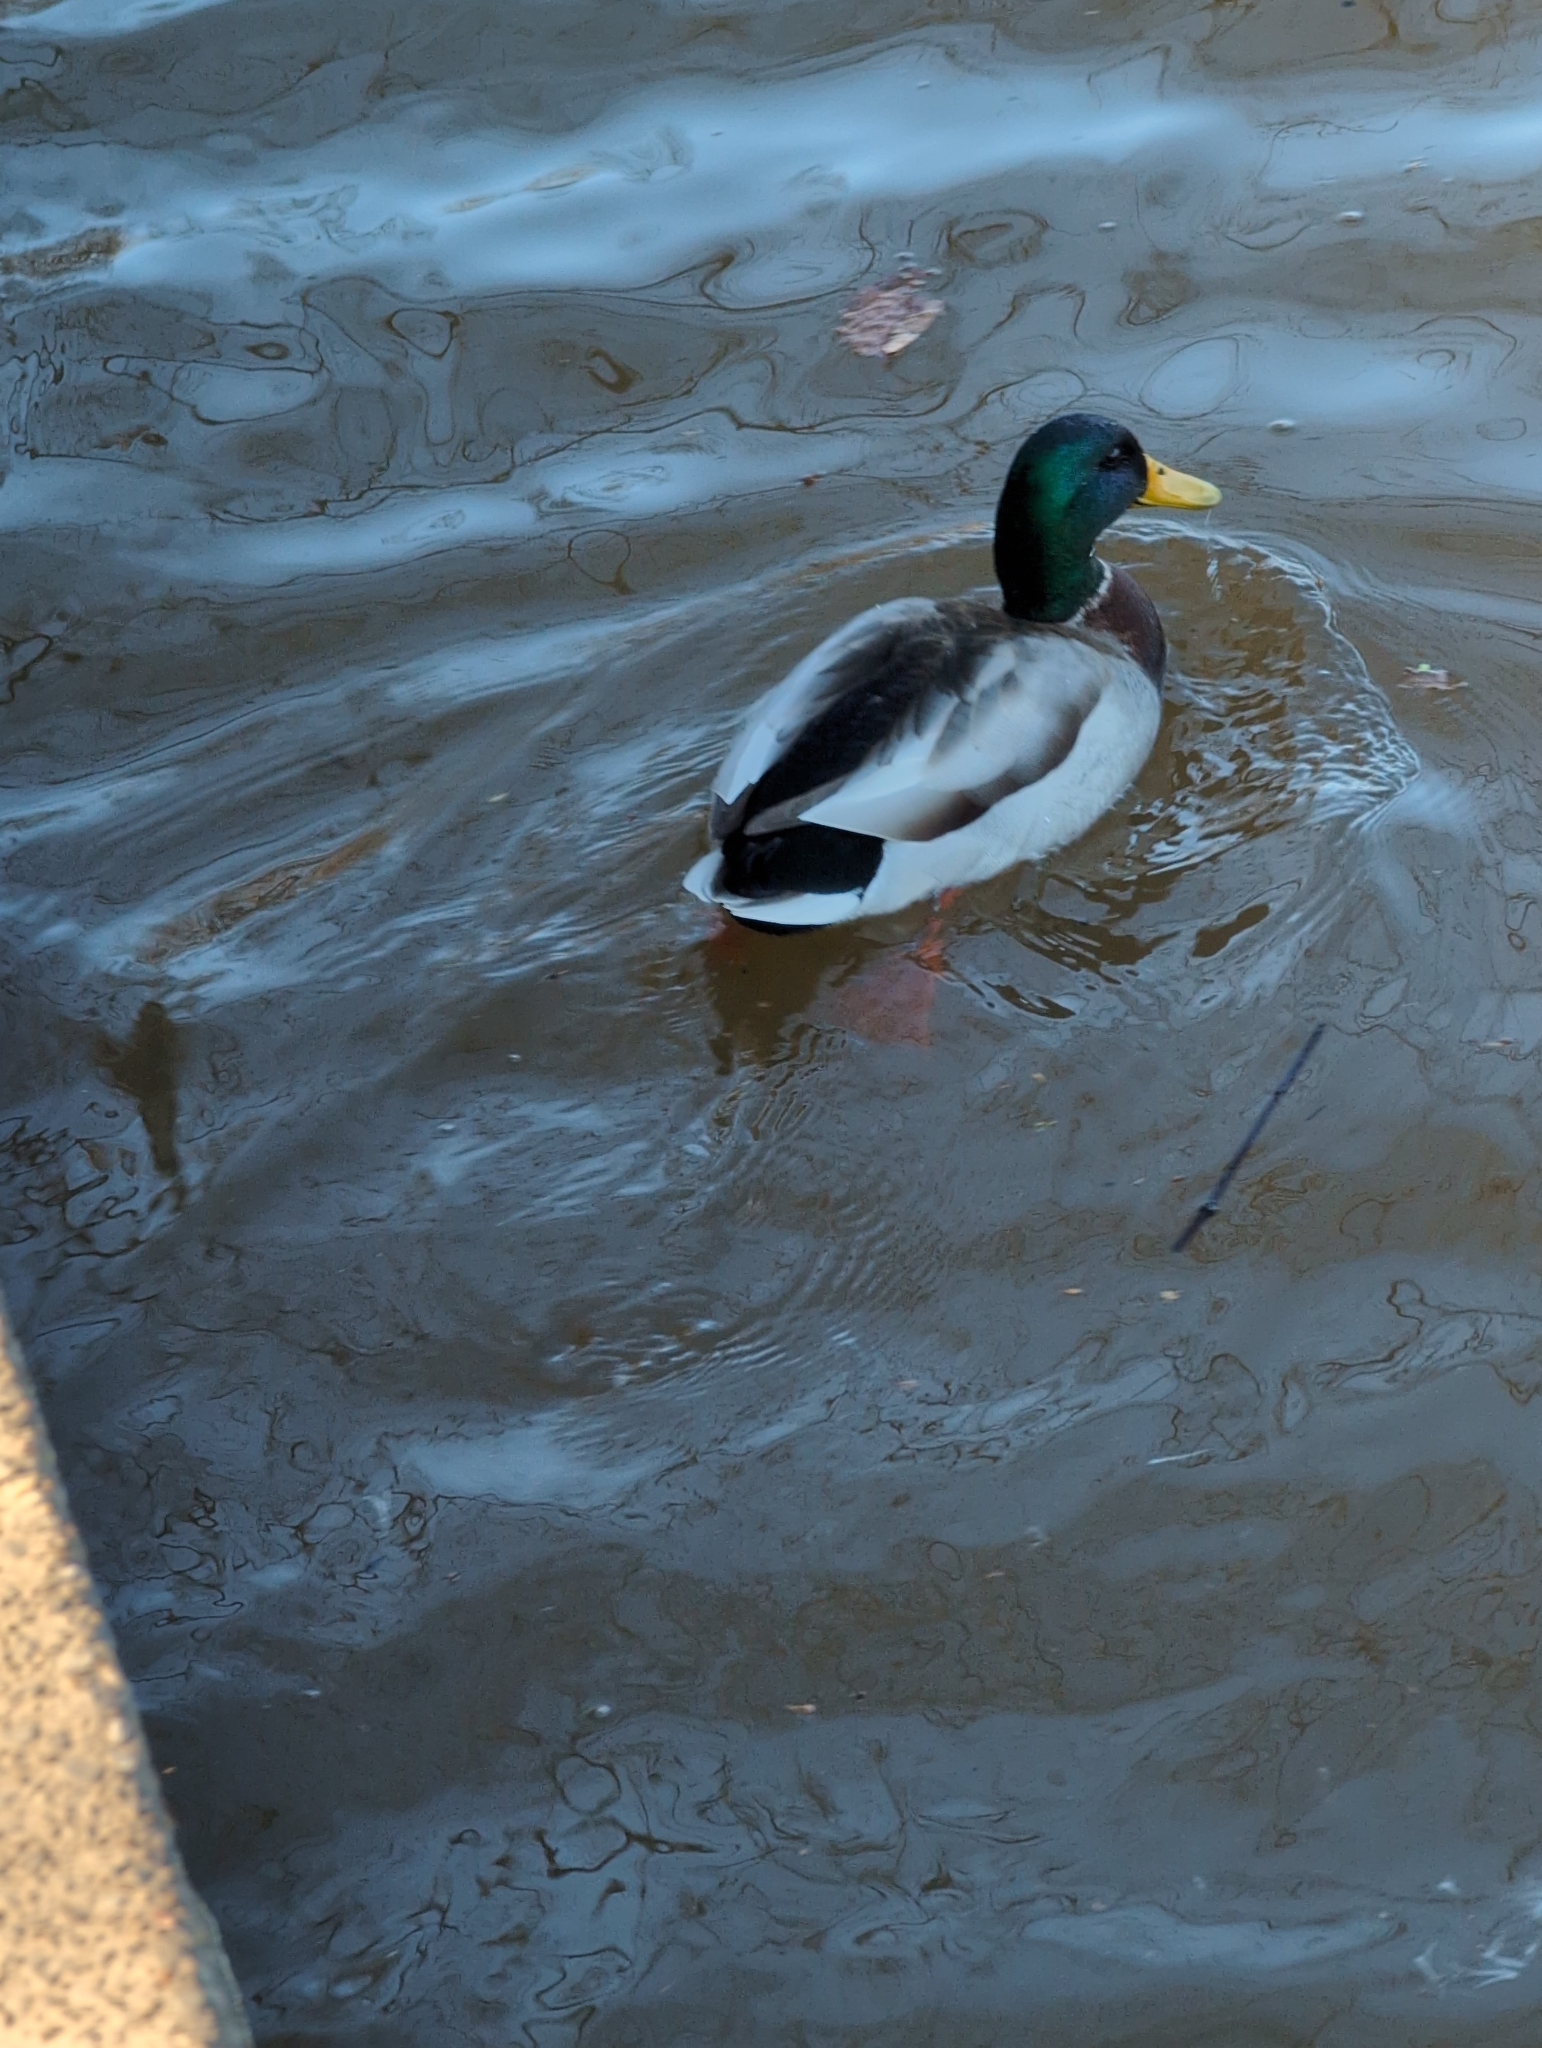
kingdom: Animalia
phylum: Chordata
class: Aves
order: Anseriformes
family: Anatidae
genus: Anas
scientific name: Anas platyrhynchos
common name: Mallard
